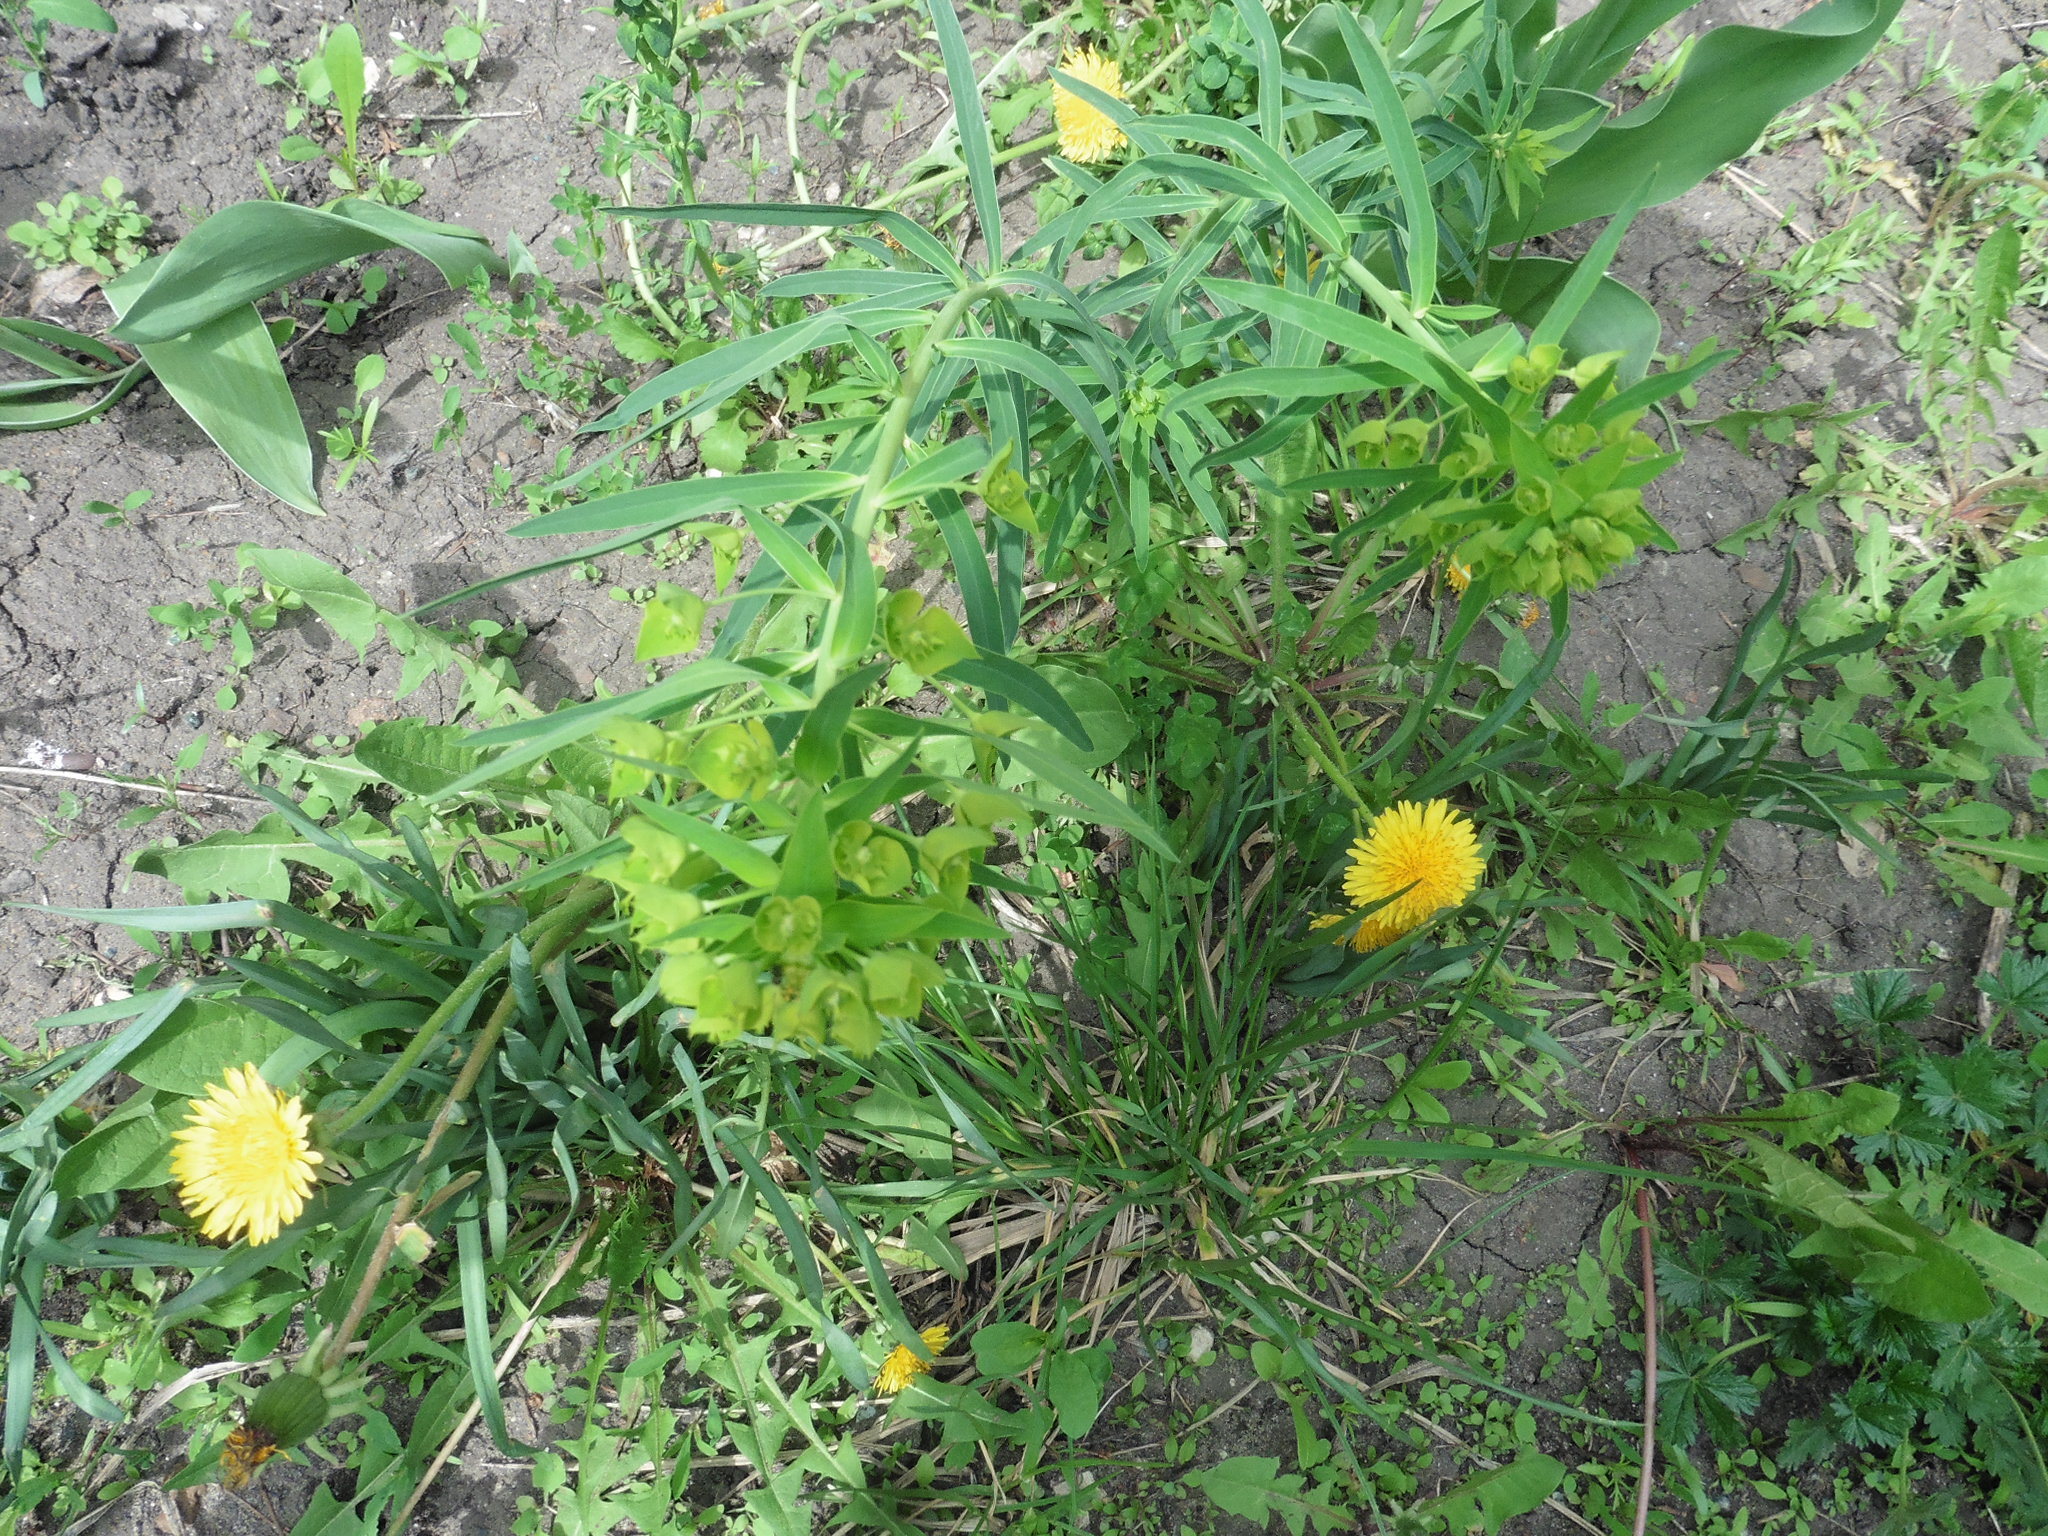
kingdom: Plantae
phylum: Tracheophyta
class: Magnoliopsida
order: Malpighiales
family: Euphorbiaceae
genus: Euphorbia
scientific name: Euphorbia virgata
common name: Leafy spurge
